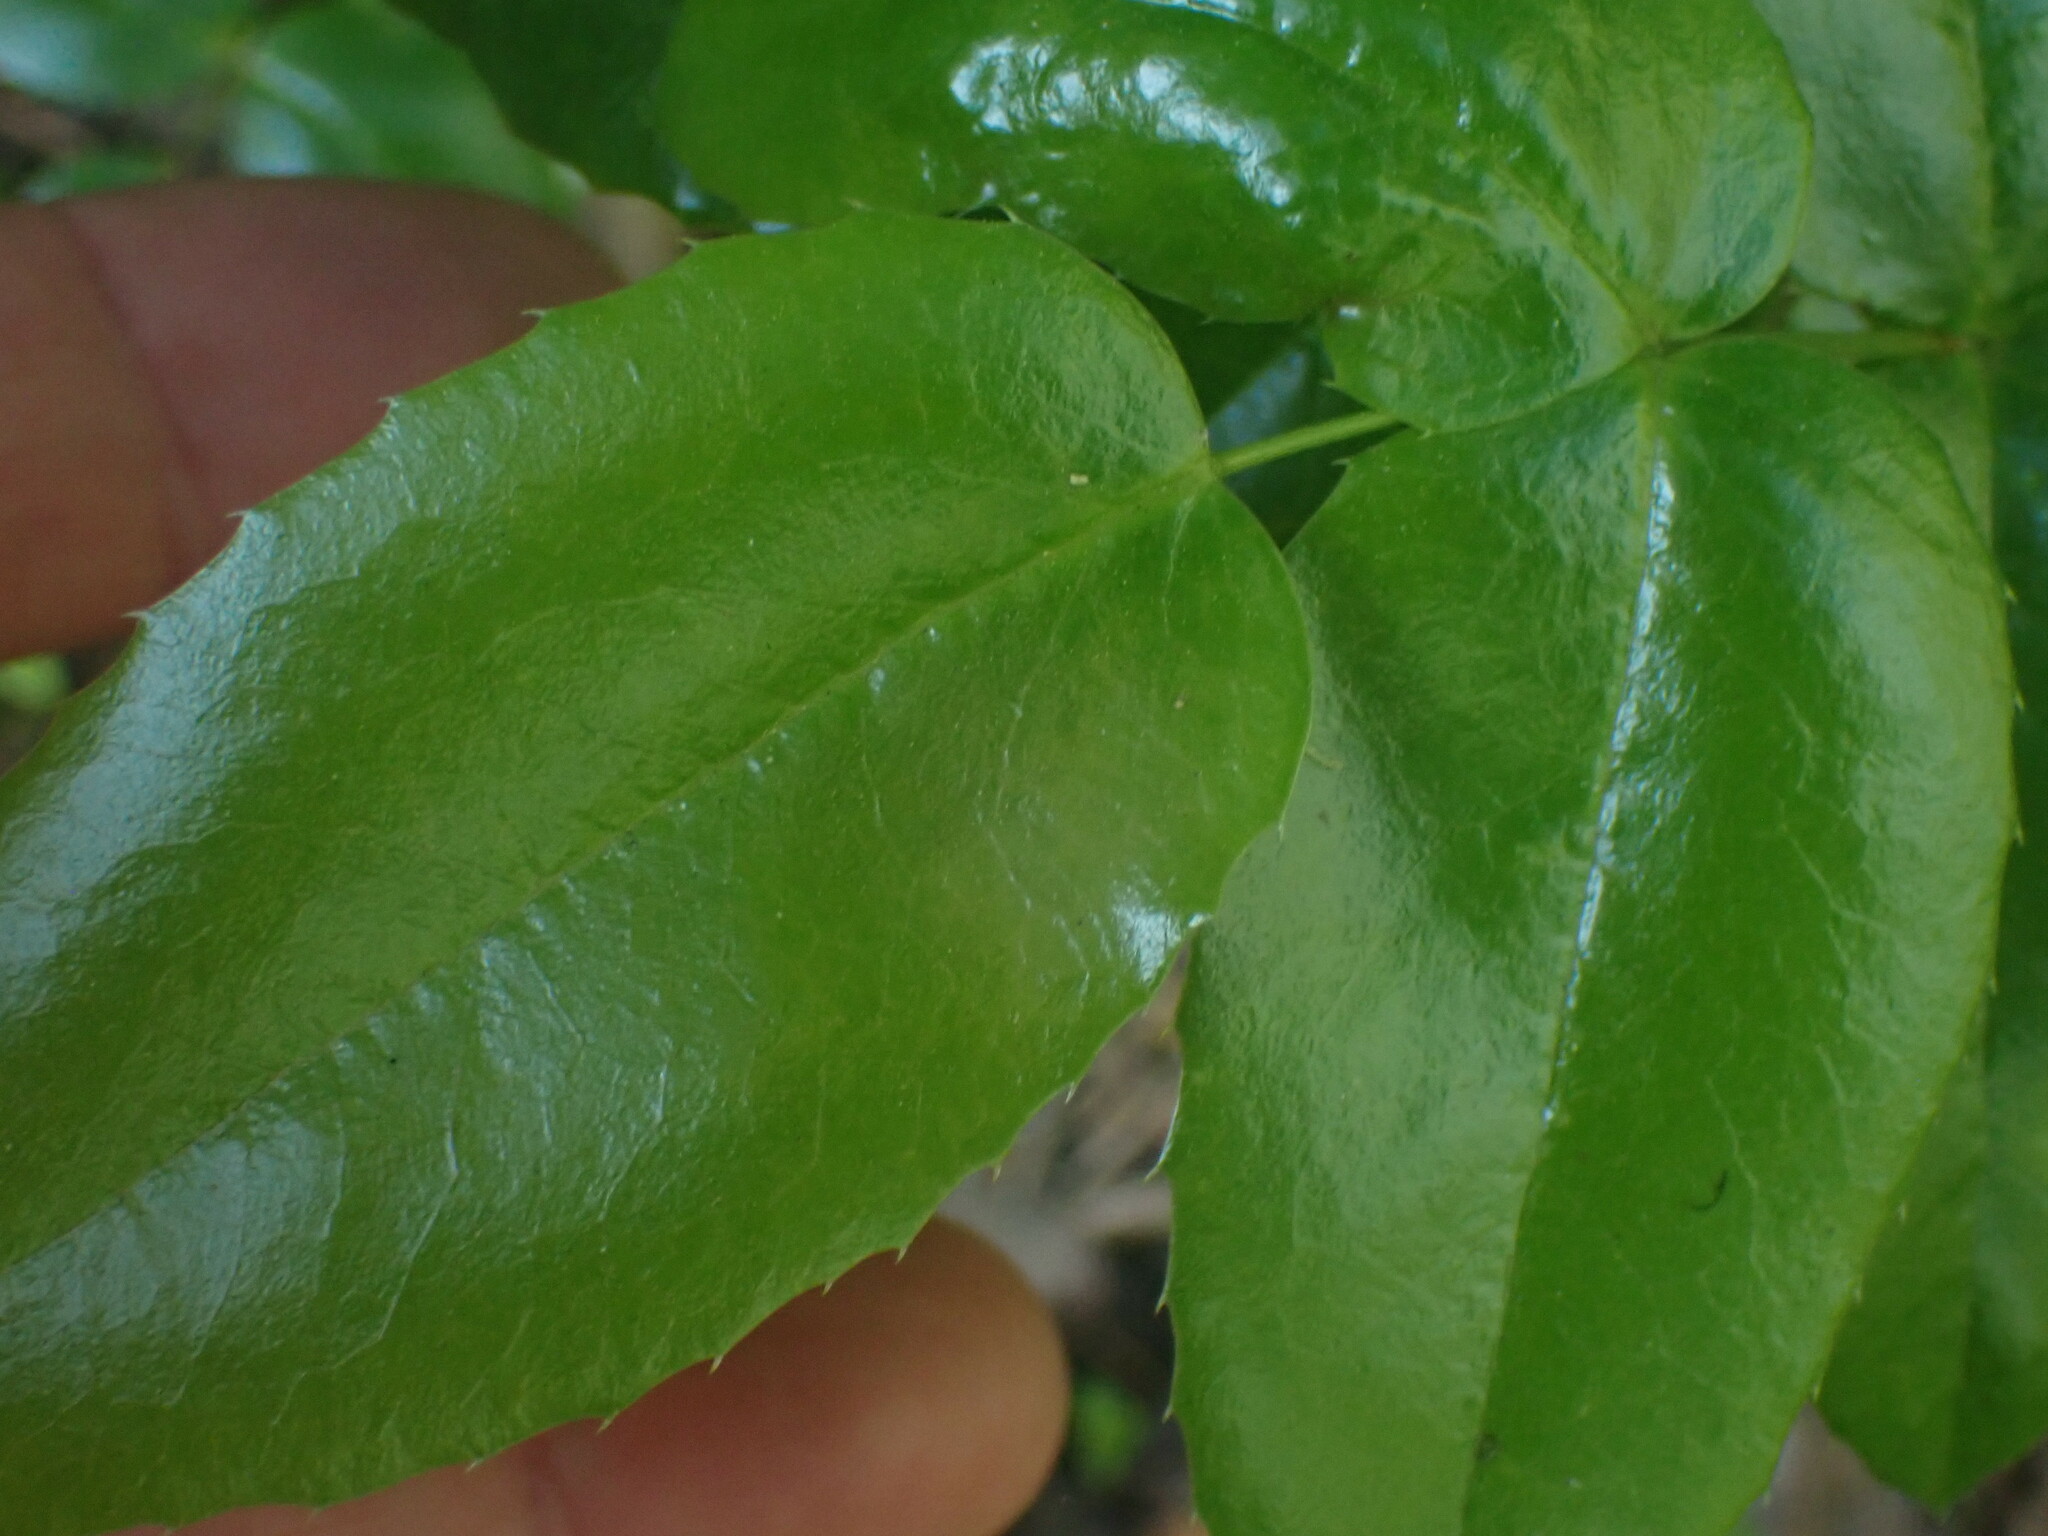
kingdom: Plantae
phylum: Tracheophyta
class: Magnoliopsida
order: Ranunculales
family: Berberidaceae
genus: Mahonia
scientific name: Mahonia aquifolium
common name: Oregon-grape
